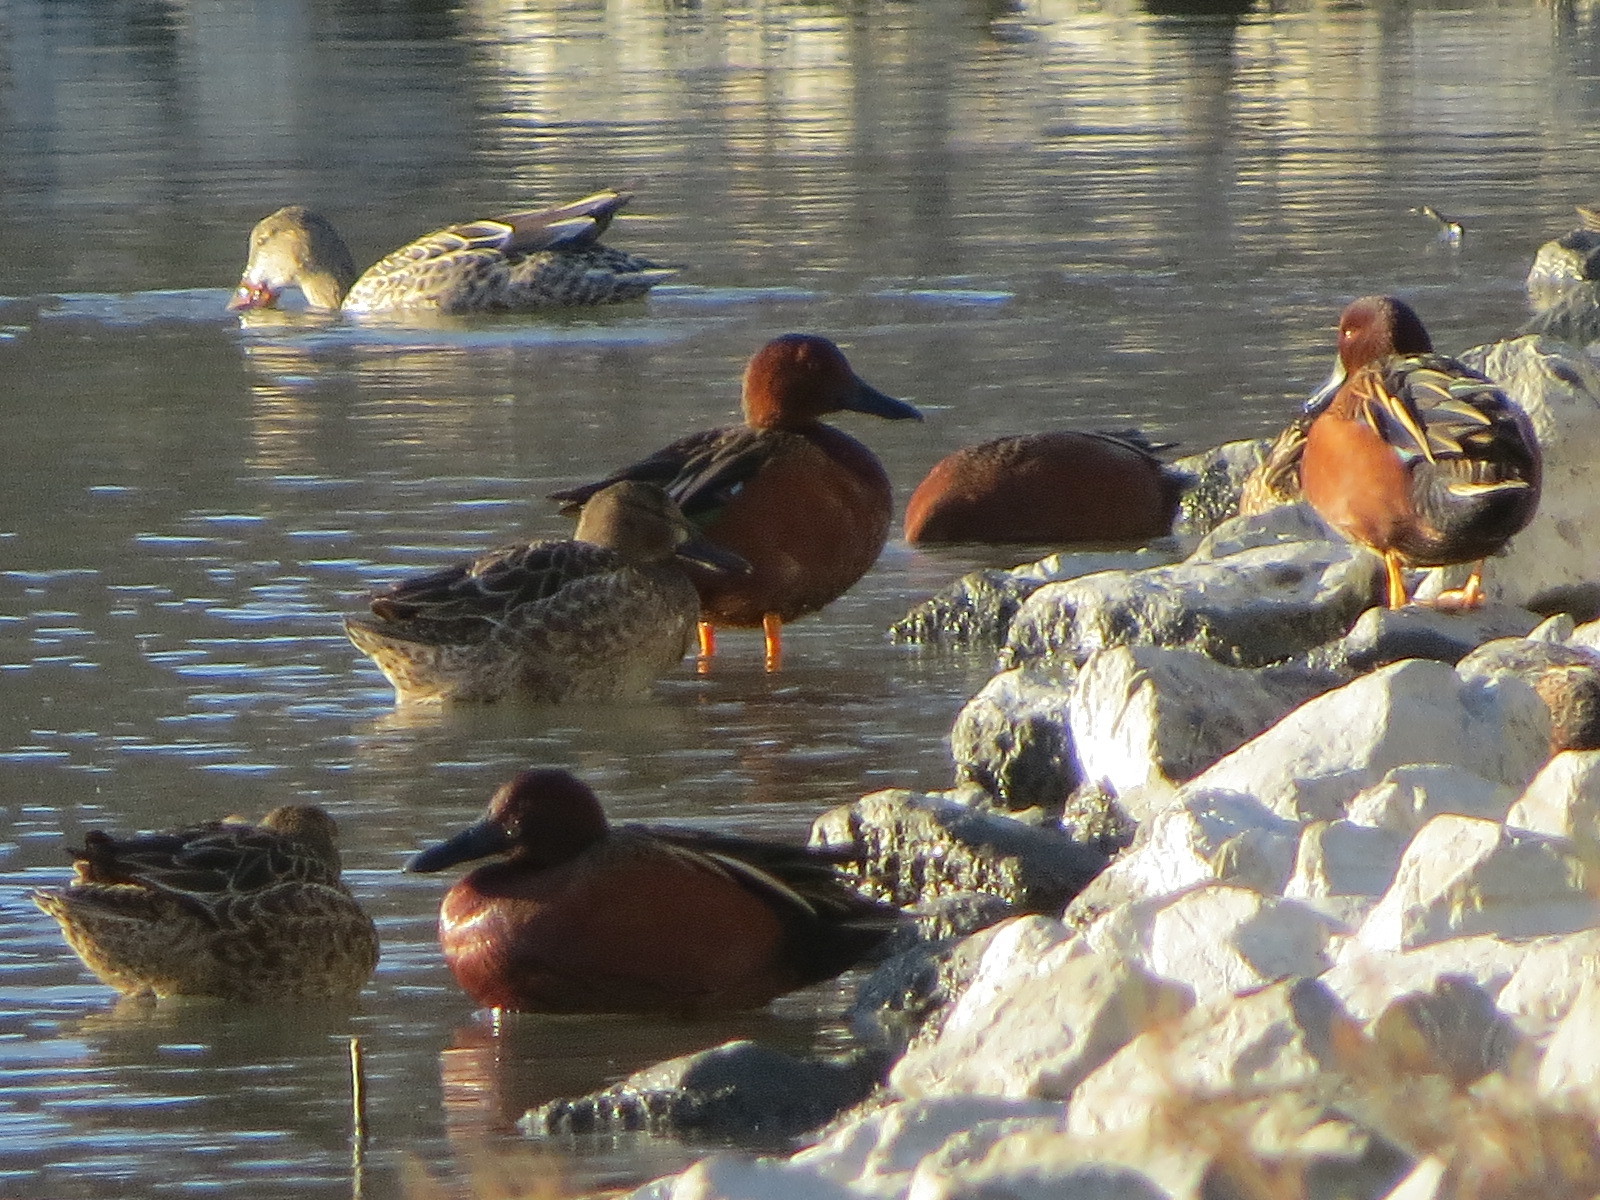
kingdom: Animalia
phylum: Chordata
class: Aves
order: Anseriformes
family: Anatidae
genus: Spatula
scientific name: Spatula cyanoptera
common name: Cinnamon teal
